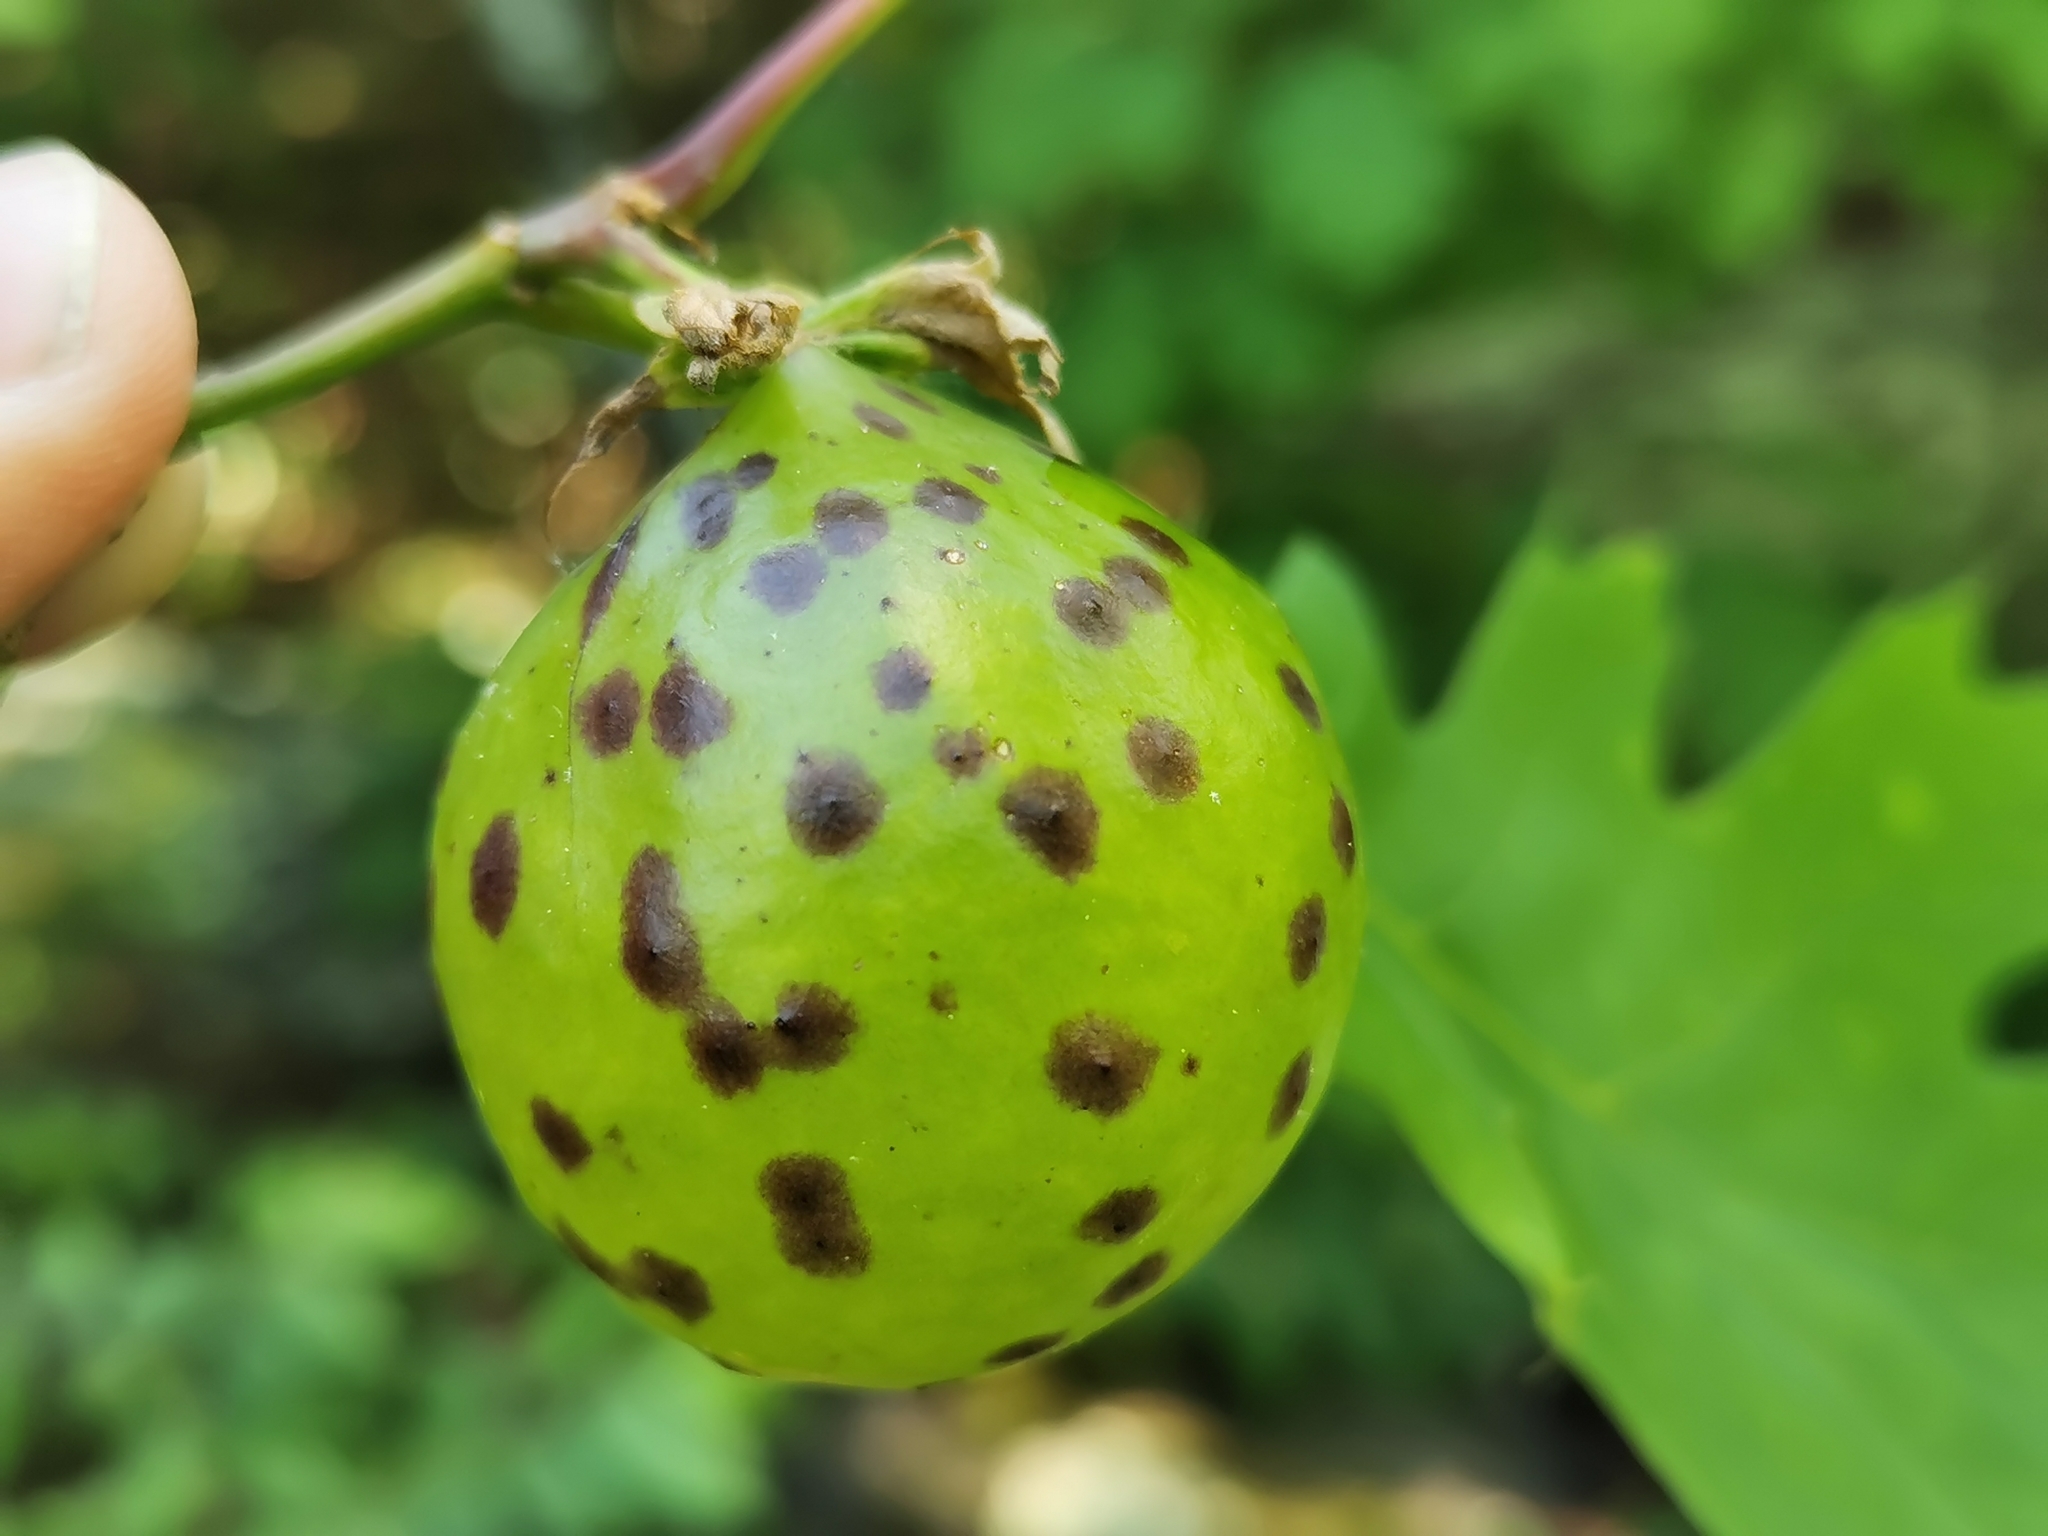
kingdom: Animalia
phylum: Arthropoda
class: Insecta
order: Hymenoptera
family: Cynipidae
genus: Amphibolips
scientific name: Amphibolips
